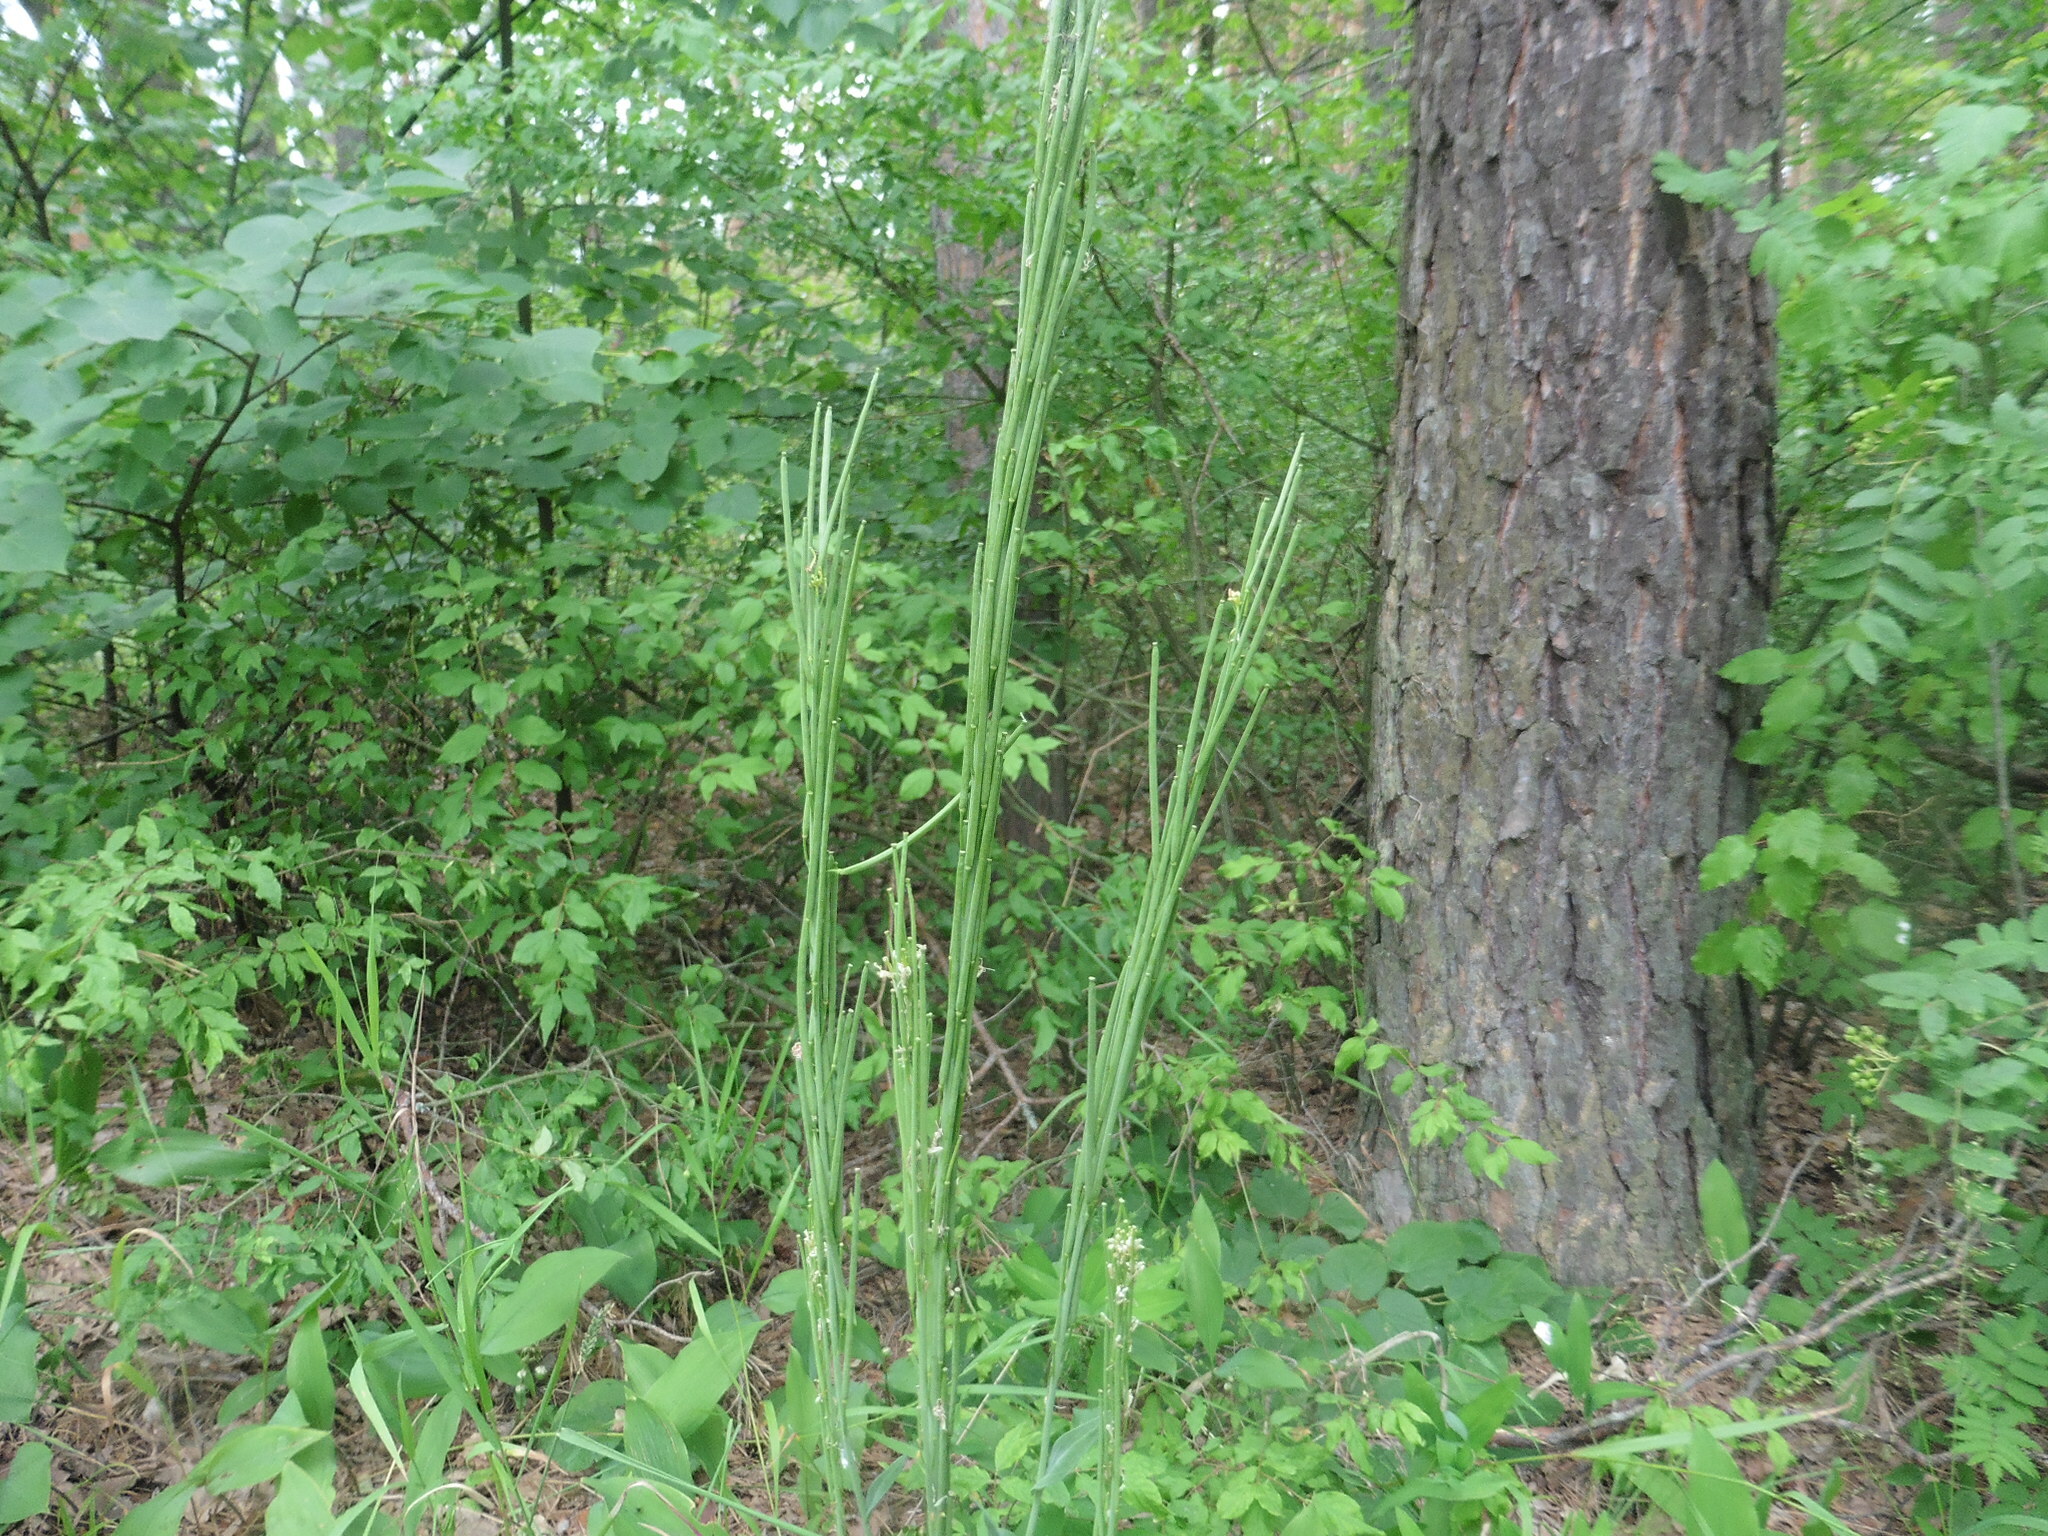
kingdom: Plantae
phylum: Tracheophyta
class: Magnoliopsida
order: Brassicales
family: Brassicaceae
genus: Turritis
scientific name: Turritis glabra
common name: Tower rockcress
